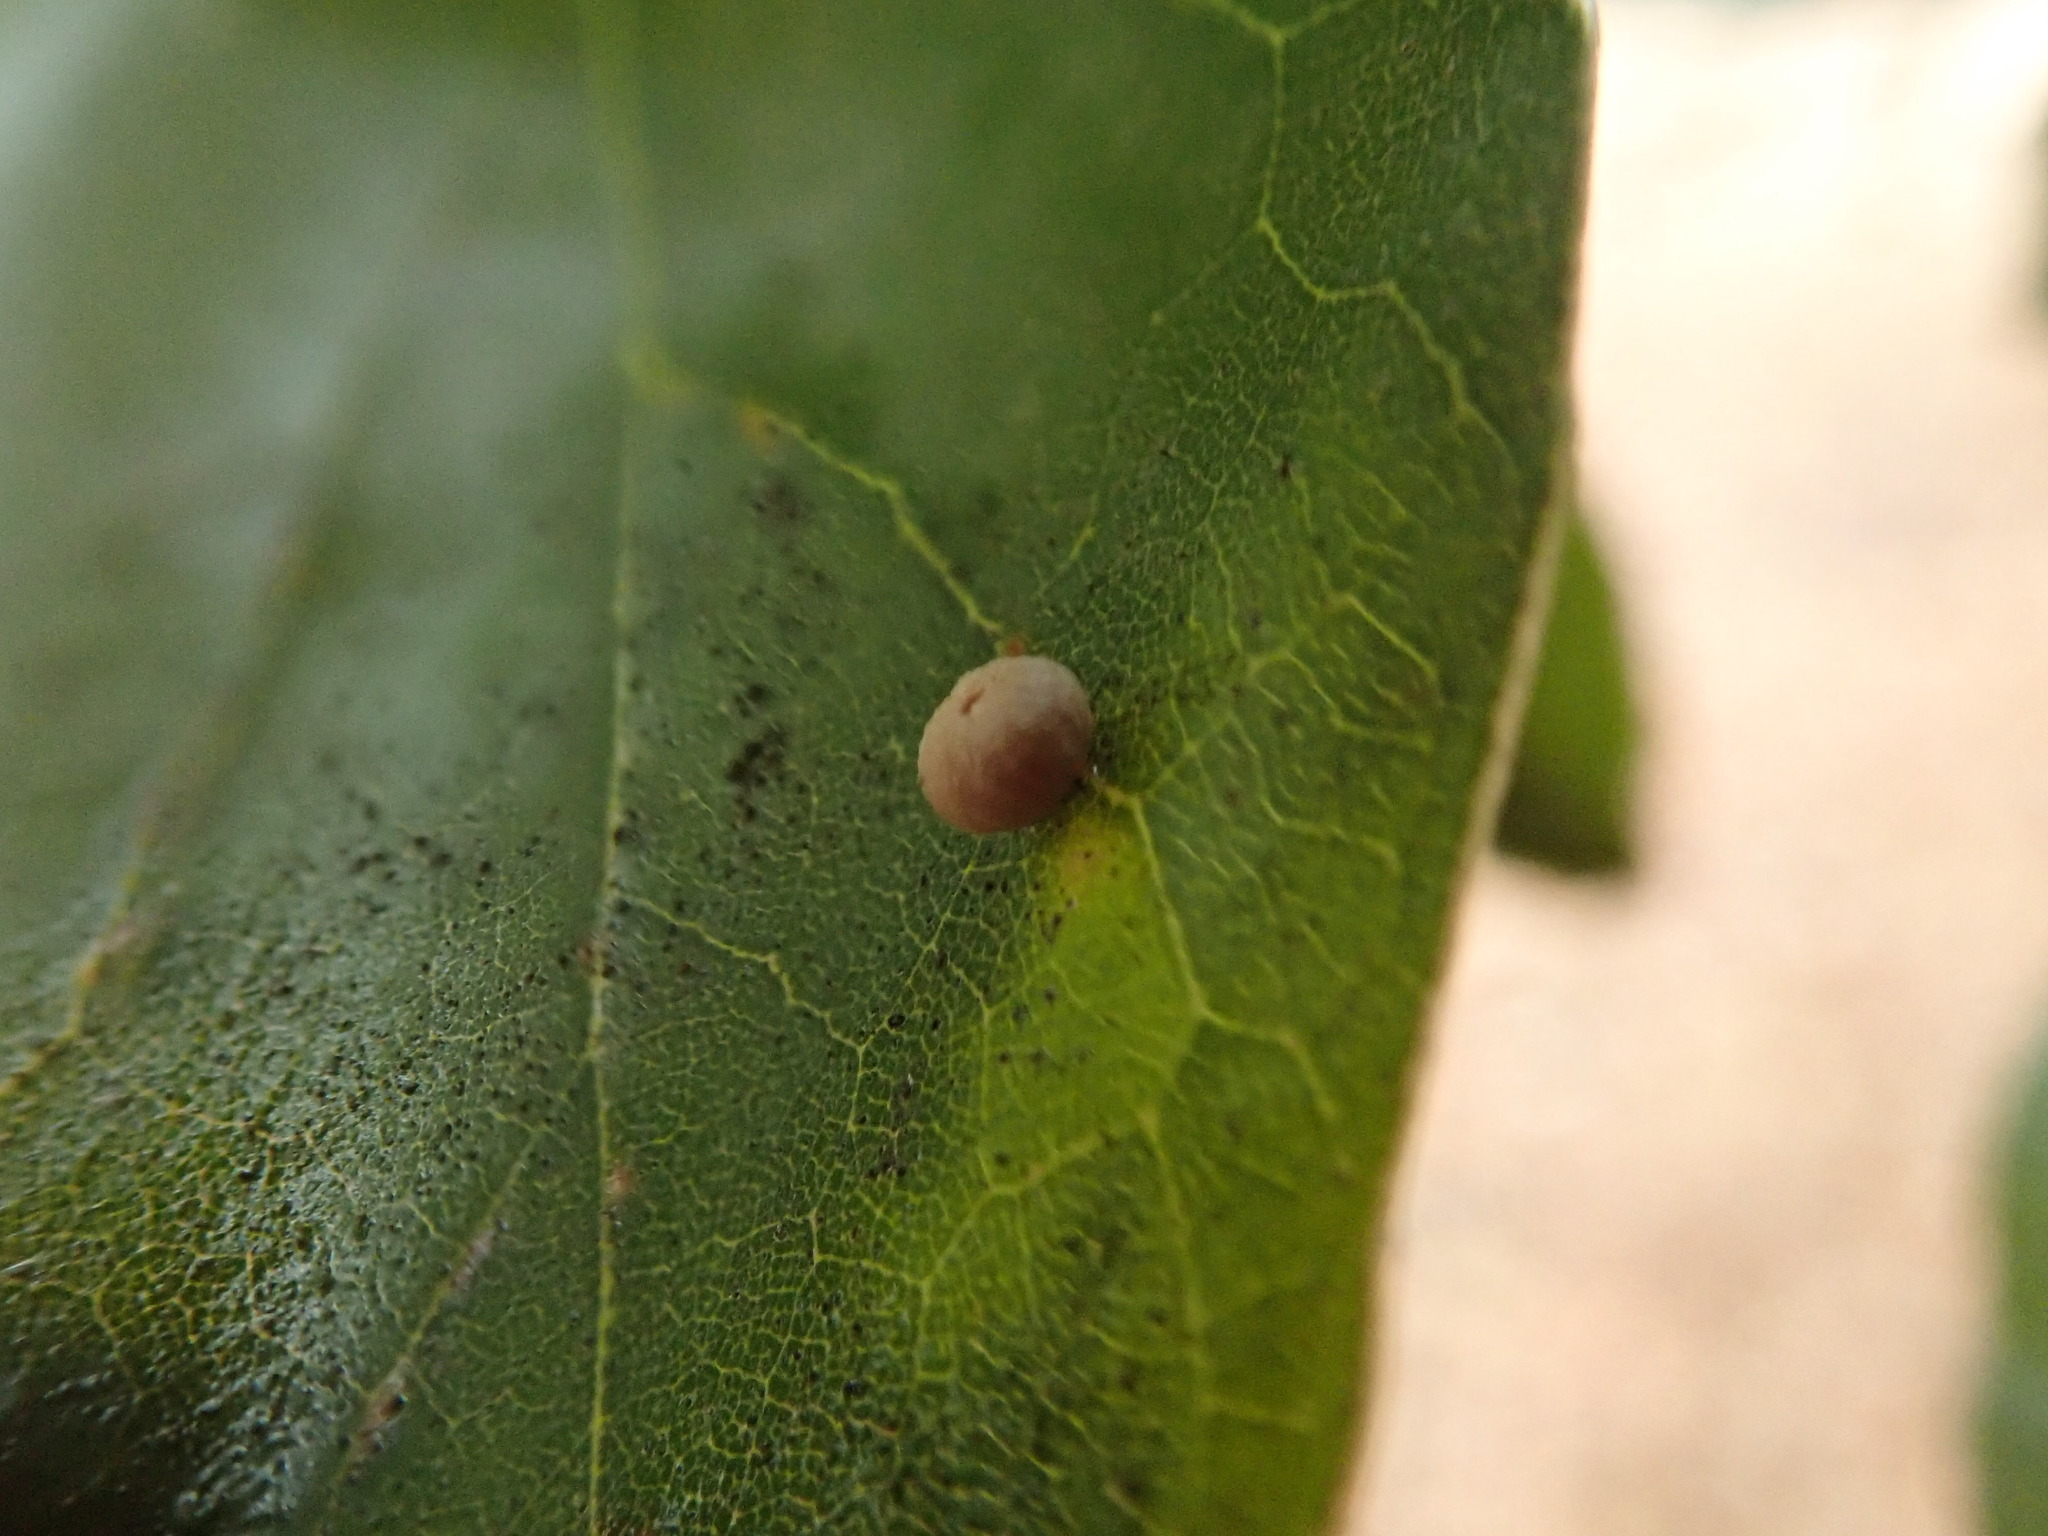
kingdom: Animalia
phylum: Arthropoda
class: Insecta
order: Hymenoptera
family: Cynipidae
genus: Dryocosmus
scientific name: Dryocosmus
